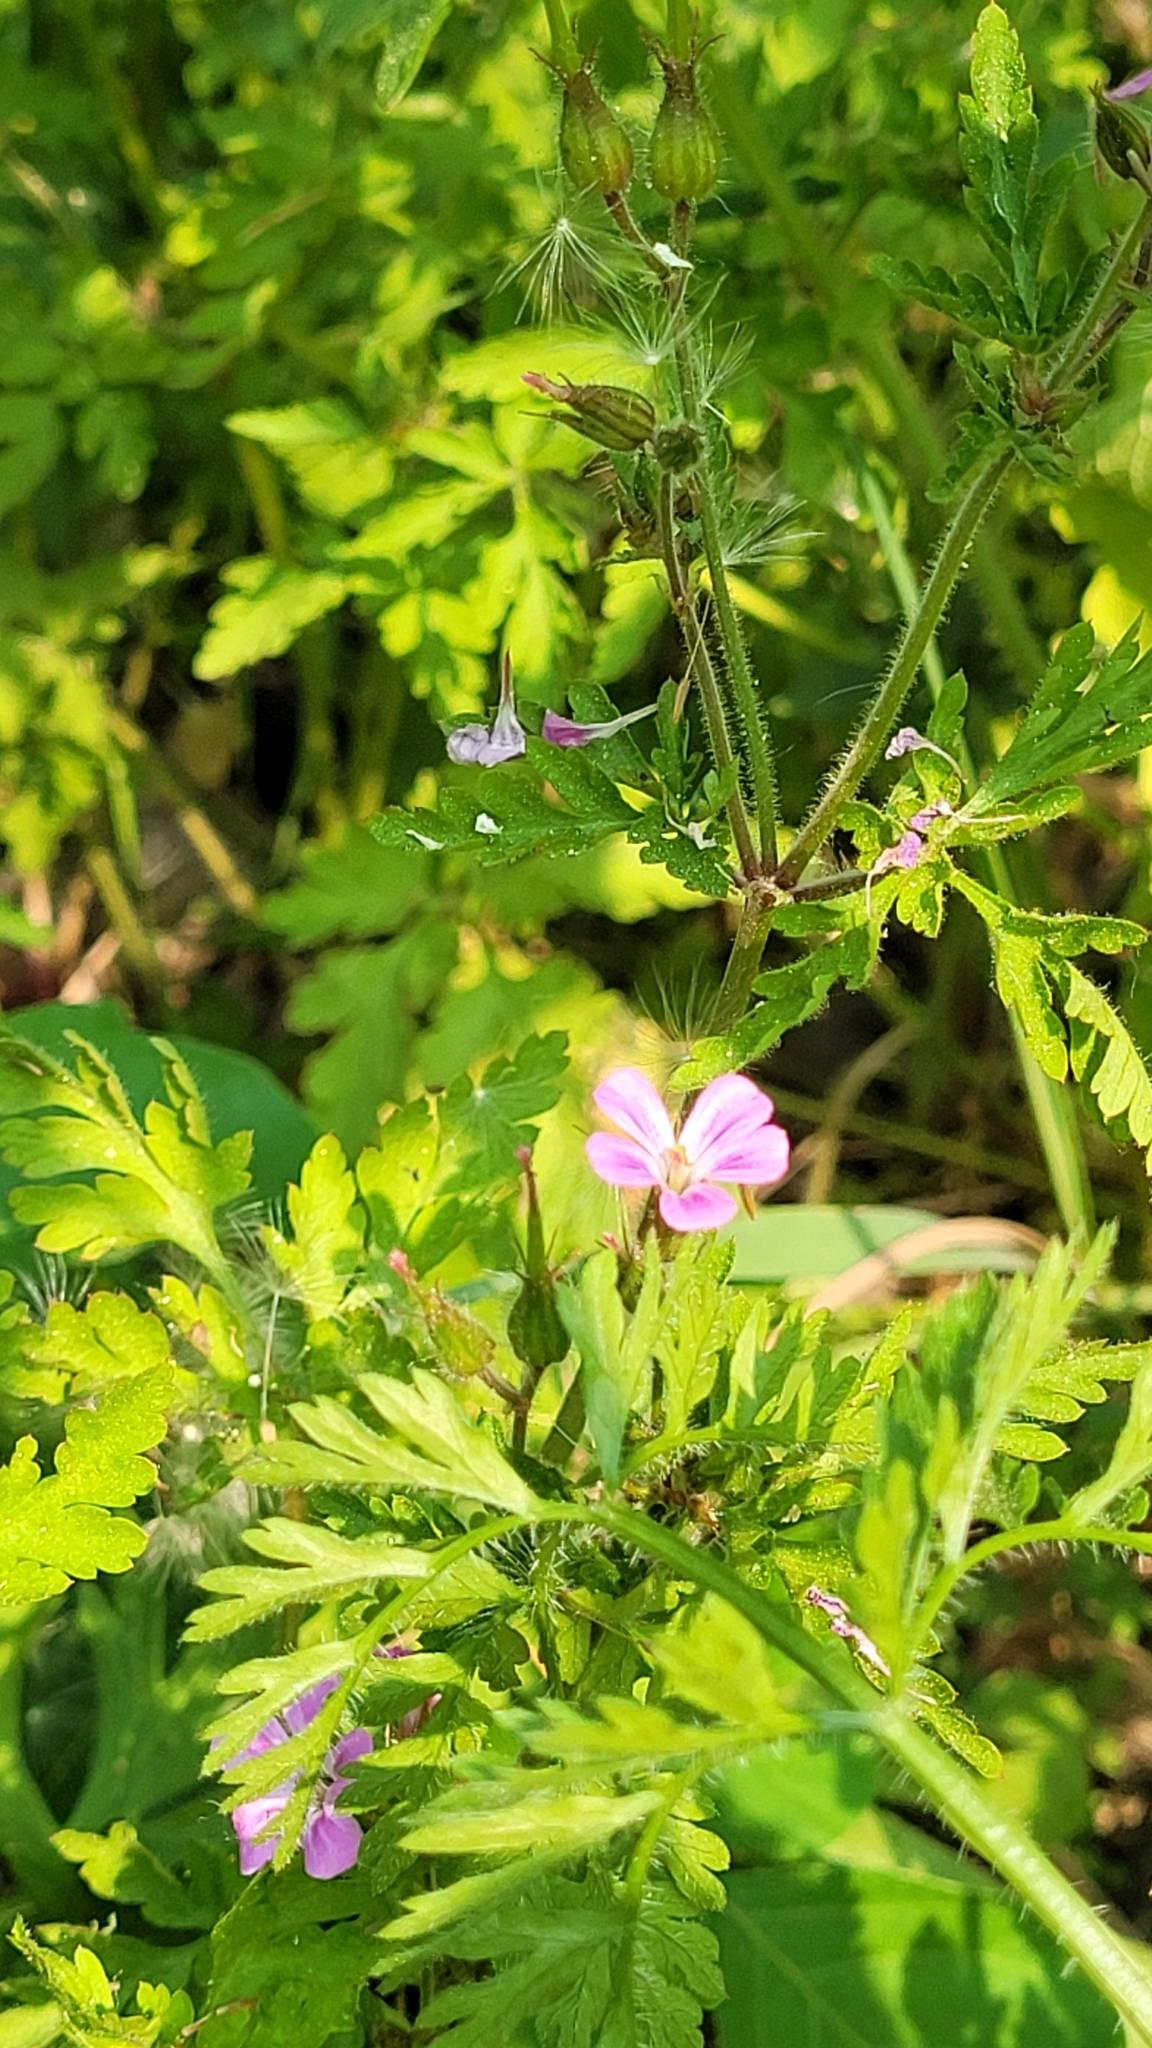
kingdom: Plantae
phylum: Tracheophyta
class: Magnoliopsida
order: Geraniales
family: Geraniaceae
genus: Geranium
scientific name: Geranium robertianum
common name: Herb-robert
